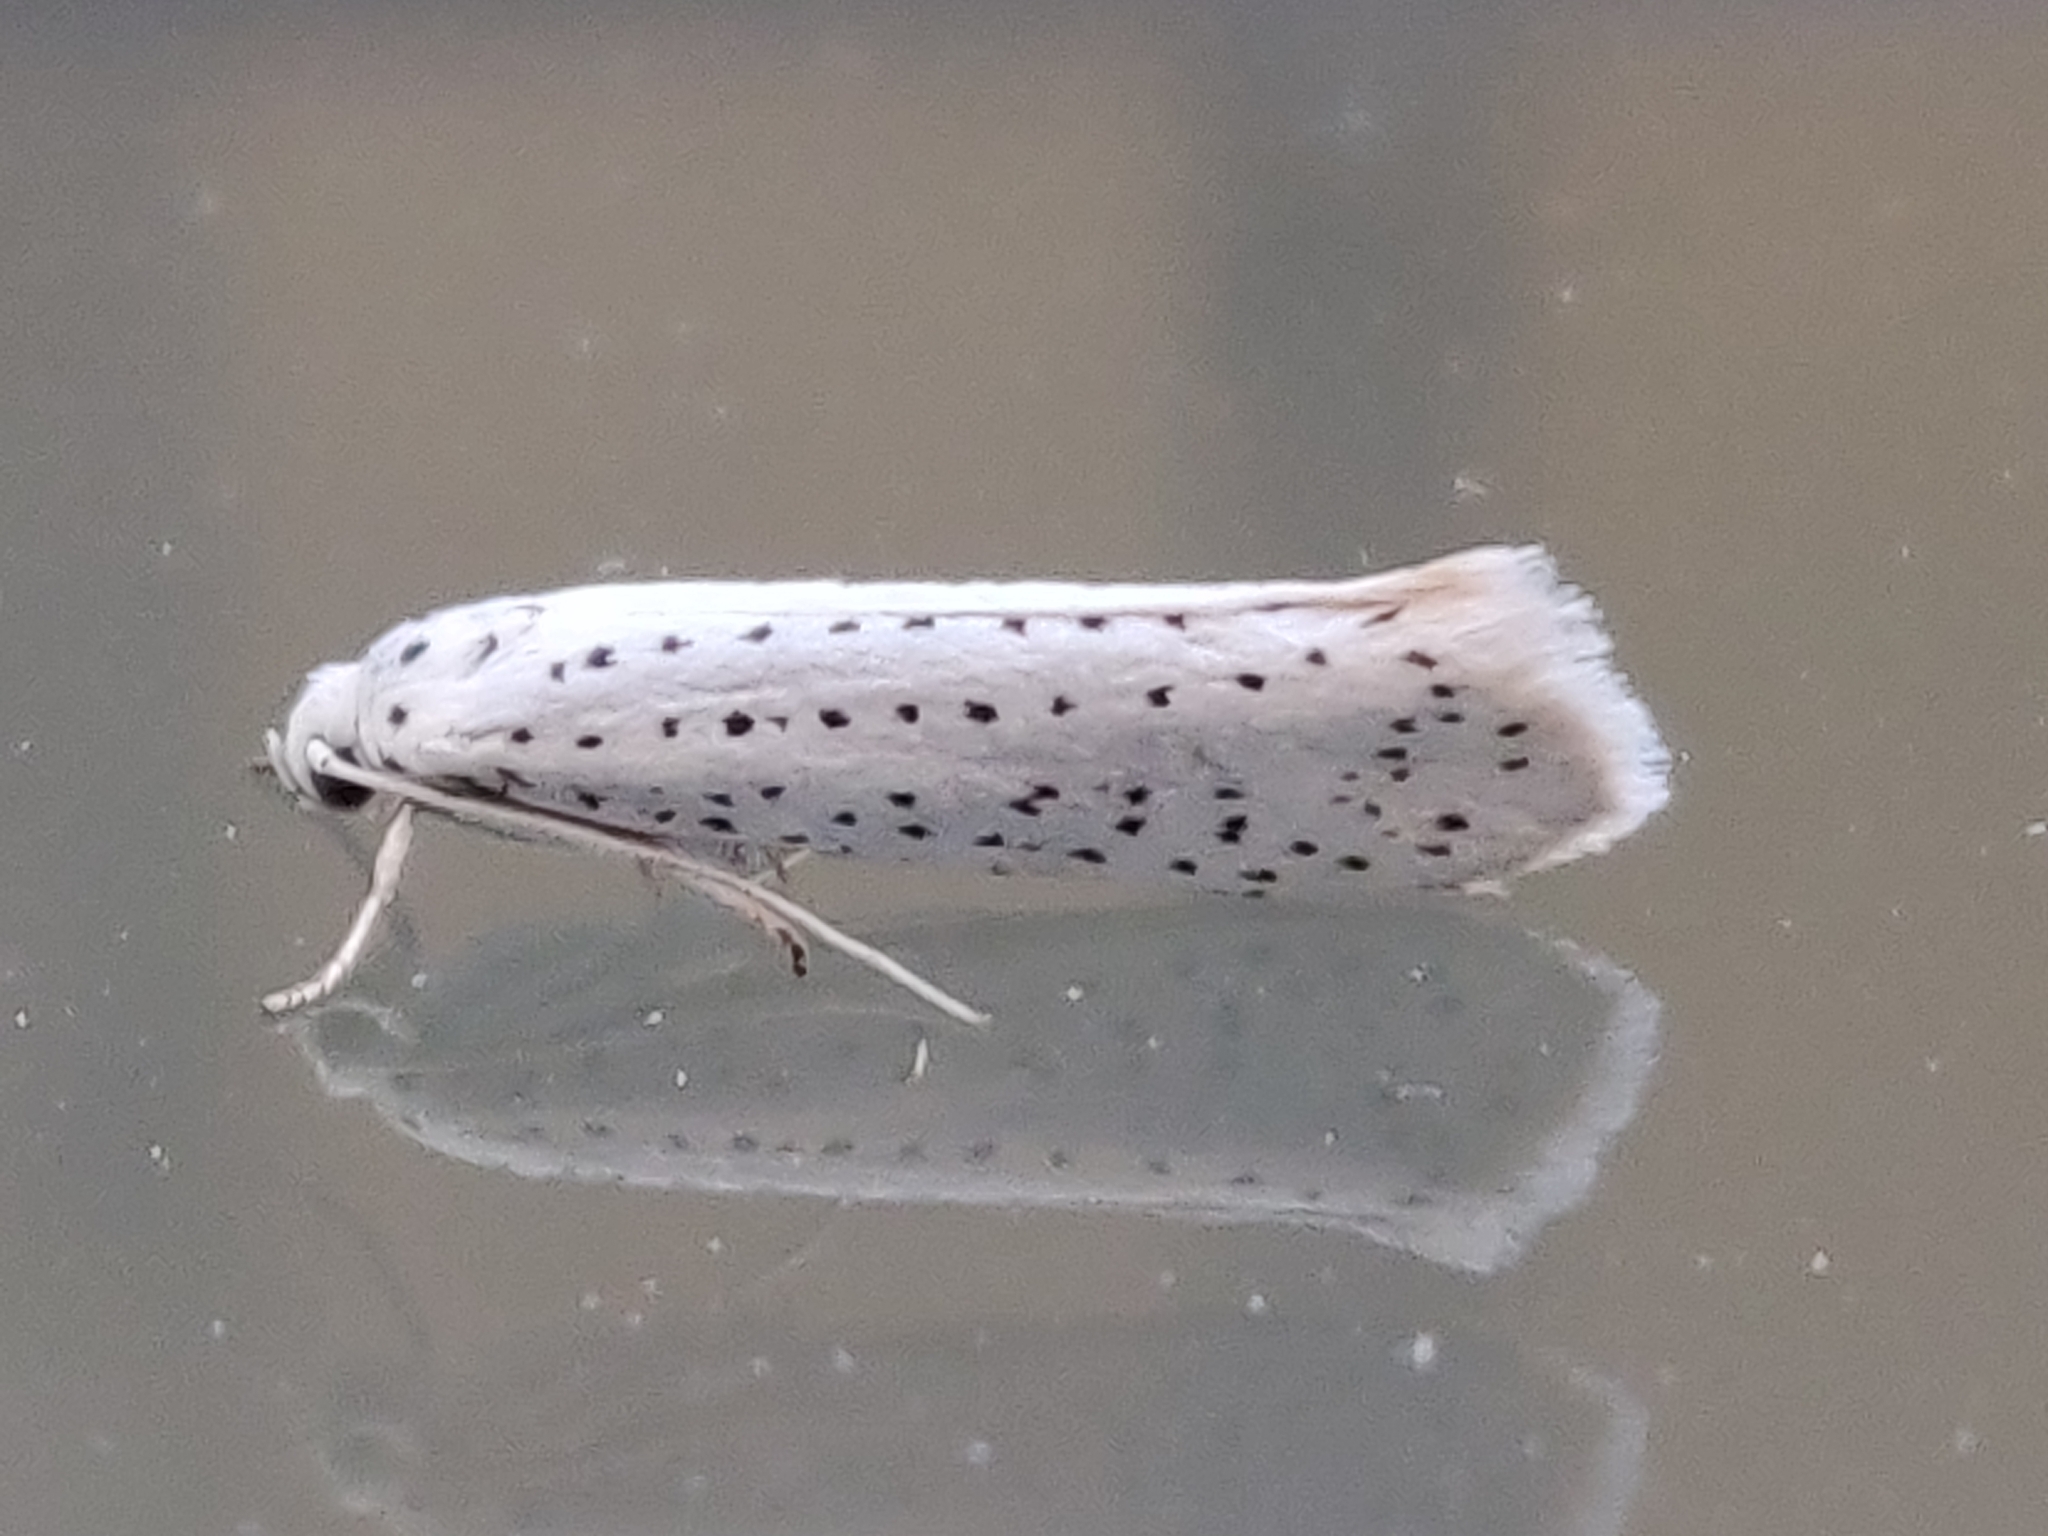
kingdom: Animalia
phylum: Arthropoda
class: Insecta
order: Lepidoptera
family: Yponomeutidae
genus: Yponomeuta
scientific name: Yponomeuta evonymella
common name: Bird-cherry ermine
